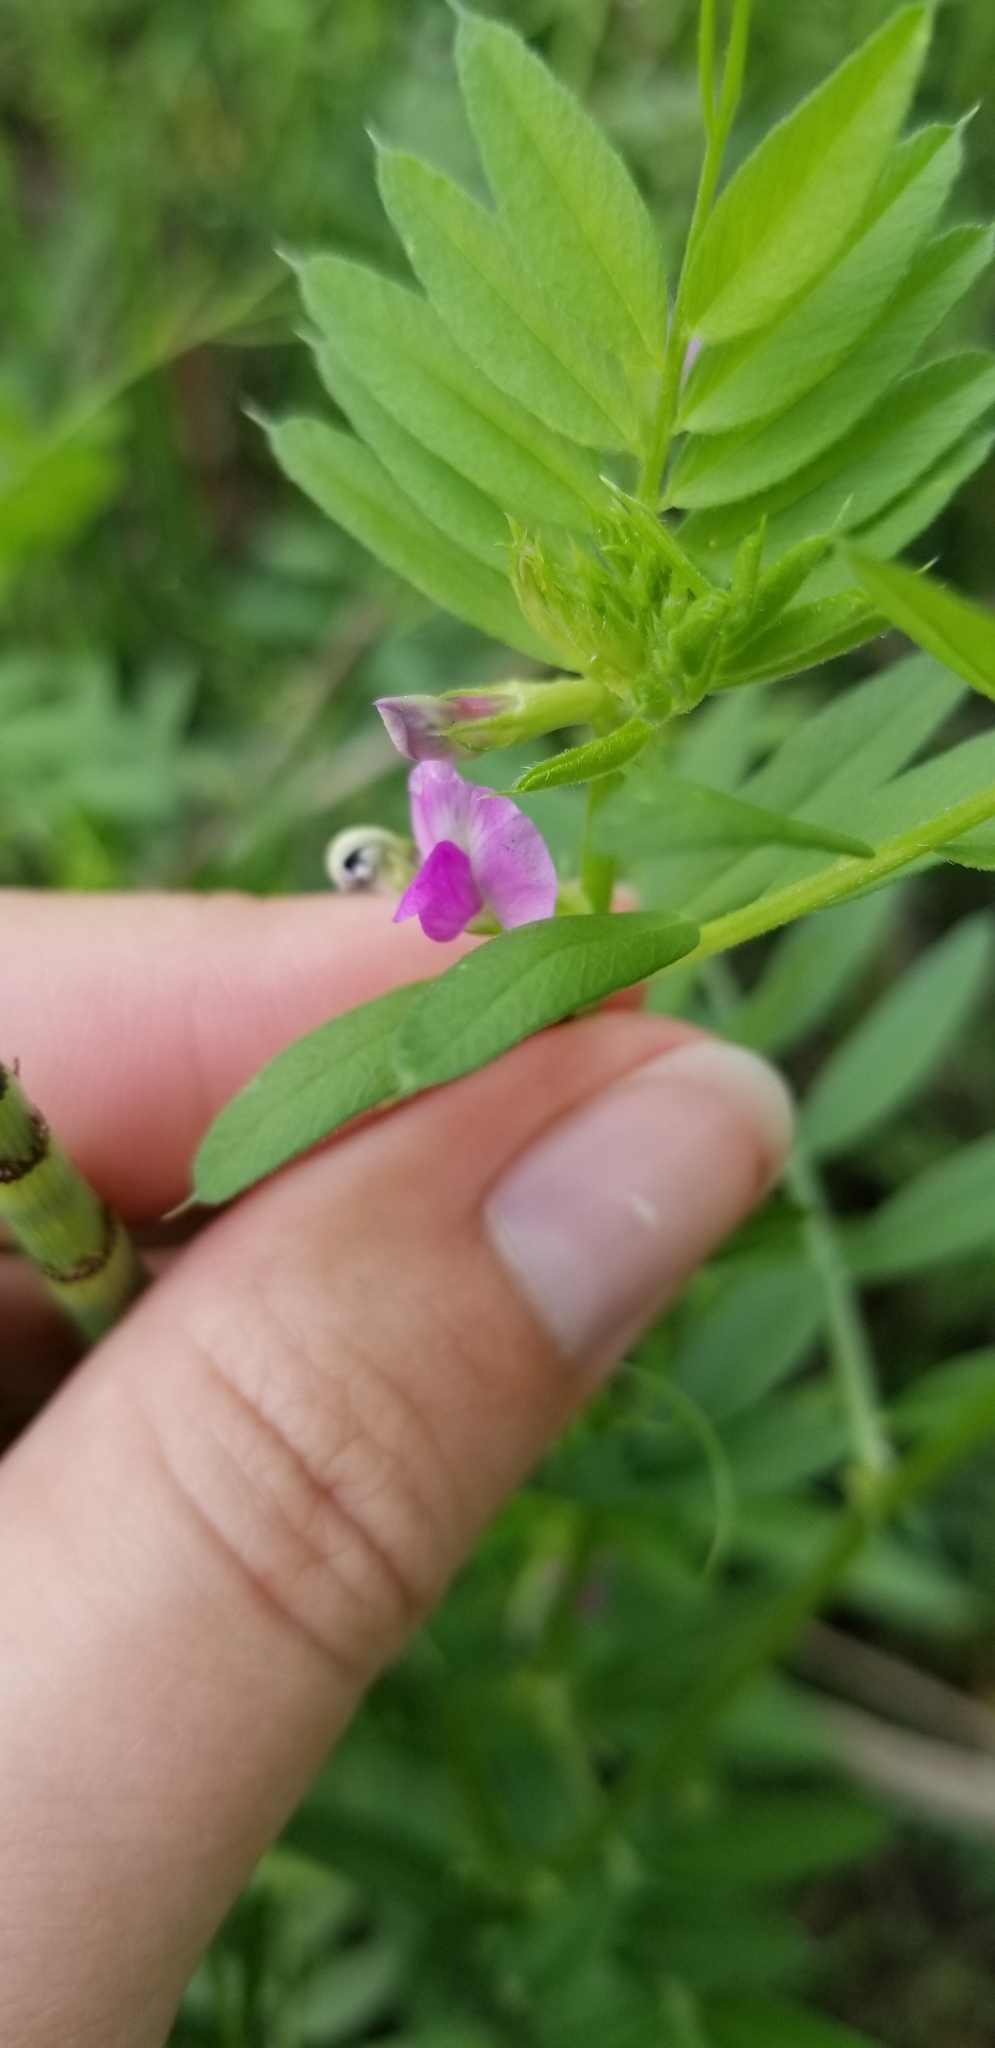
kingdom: Plantae
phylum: Tracheophyta
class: Magnoliopsida
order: Fabales
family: Fabaceae
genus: Vicia
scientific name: Vicia sativa
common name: Garden vetch
